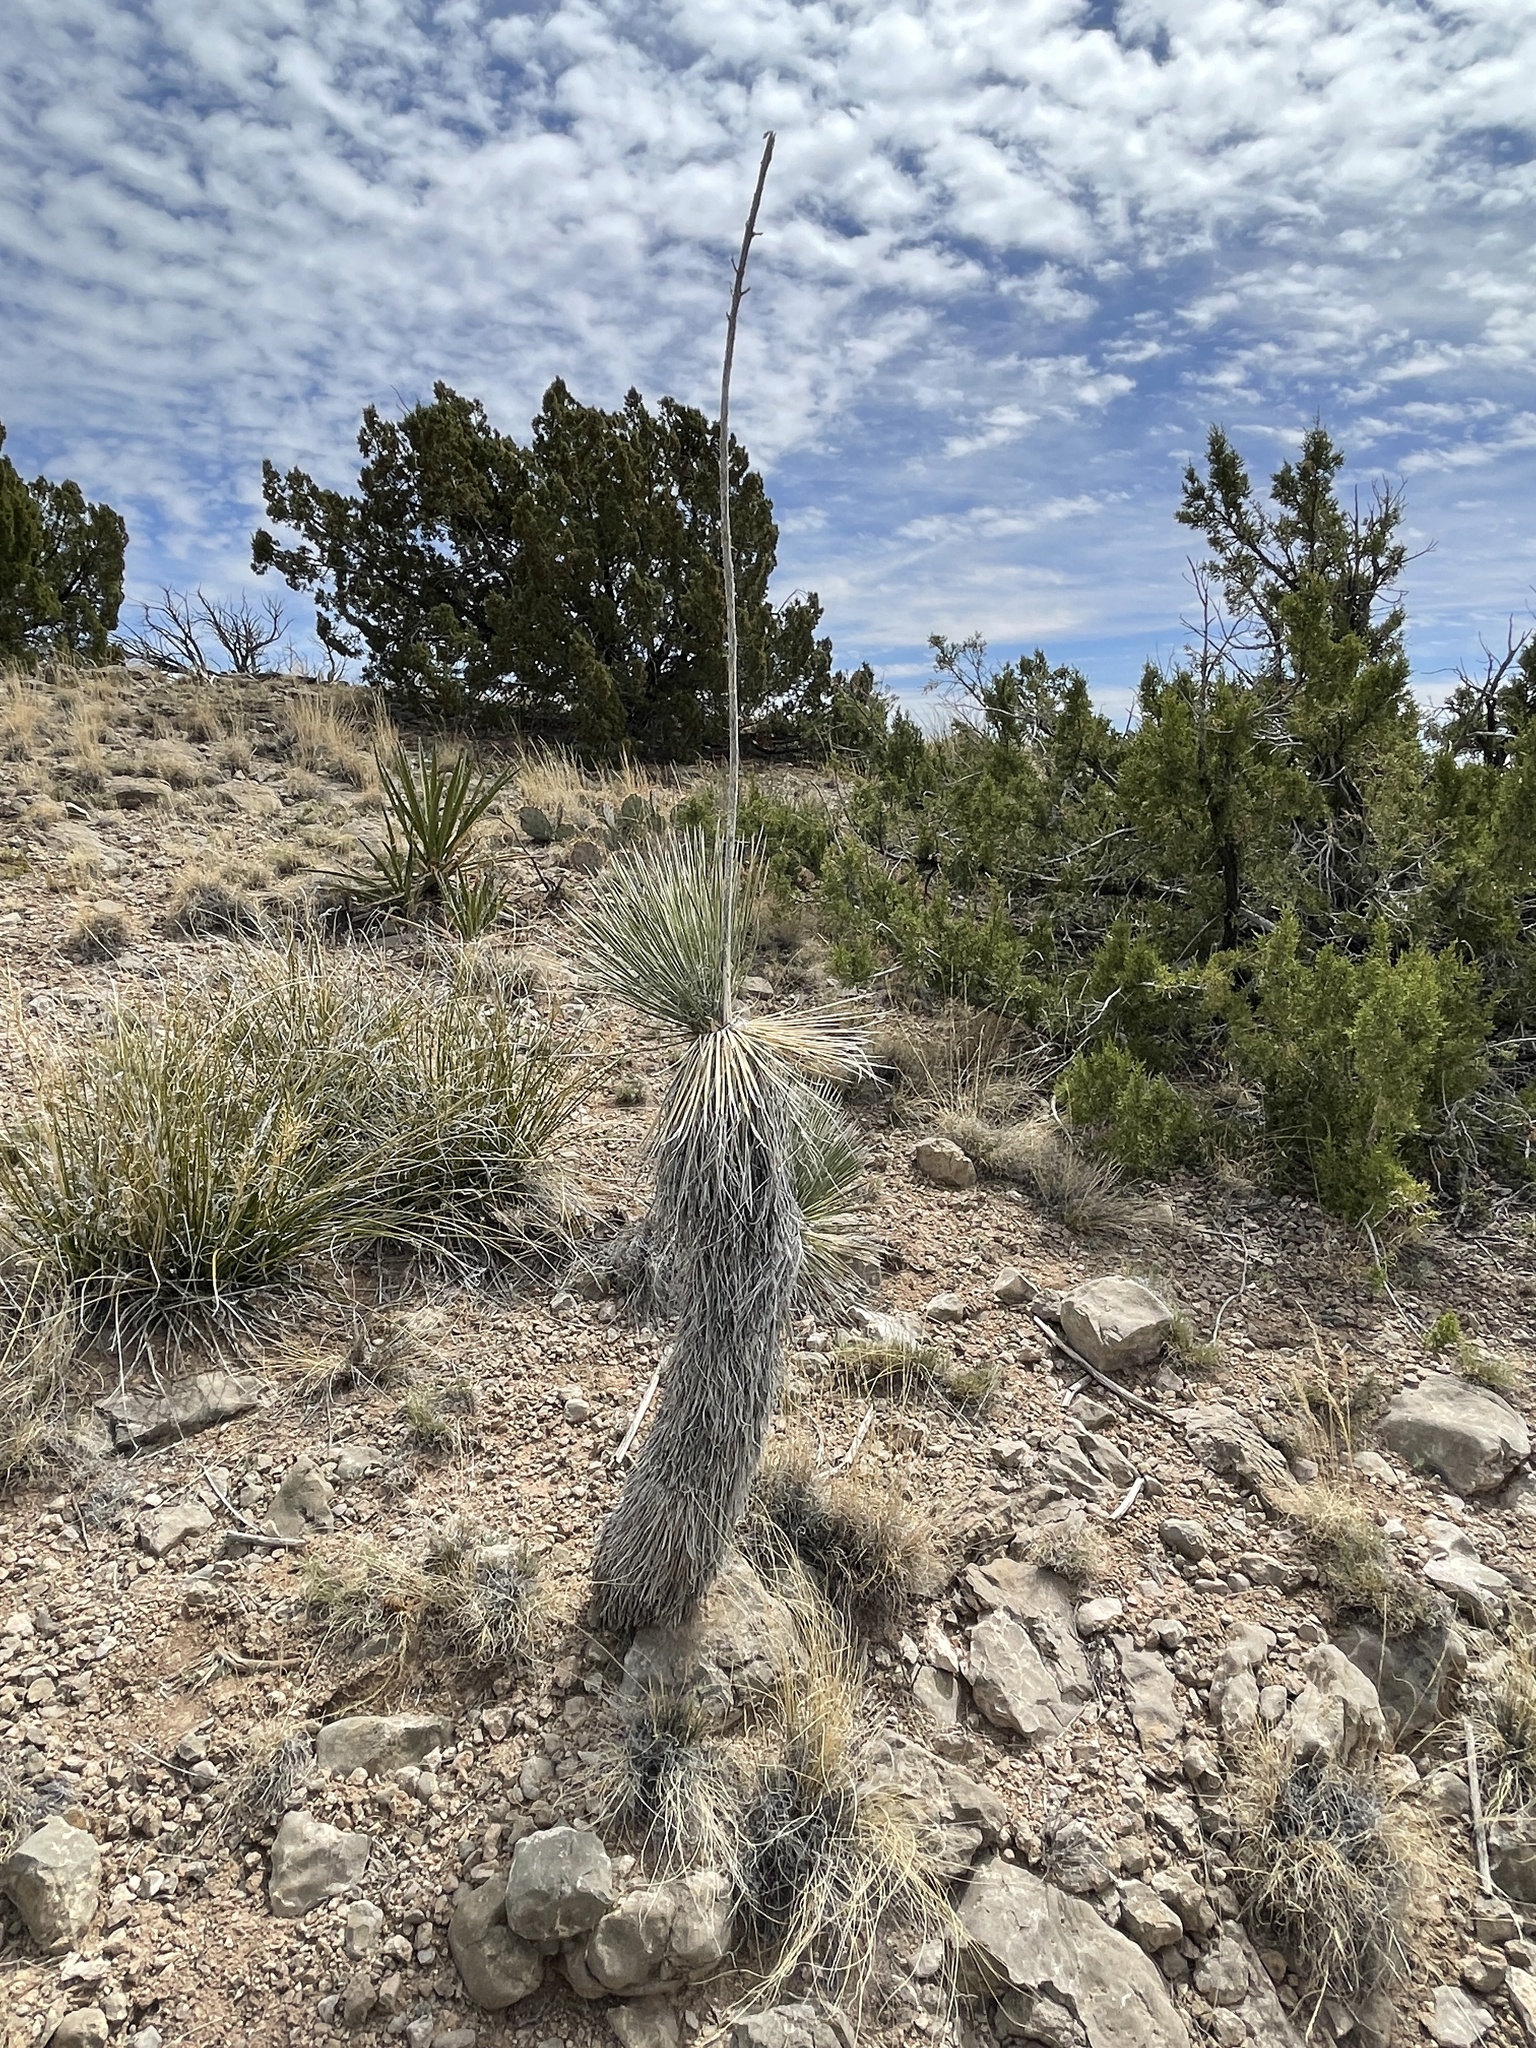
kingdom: Plantae
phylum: Tracheophyta
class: Liliopsida
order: Asparagales
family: Asparagaceae
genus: Yucca
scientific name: Yucca elata
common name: Palmella
